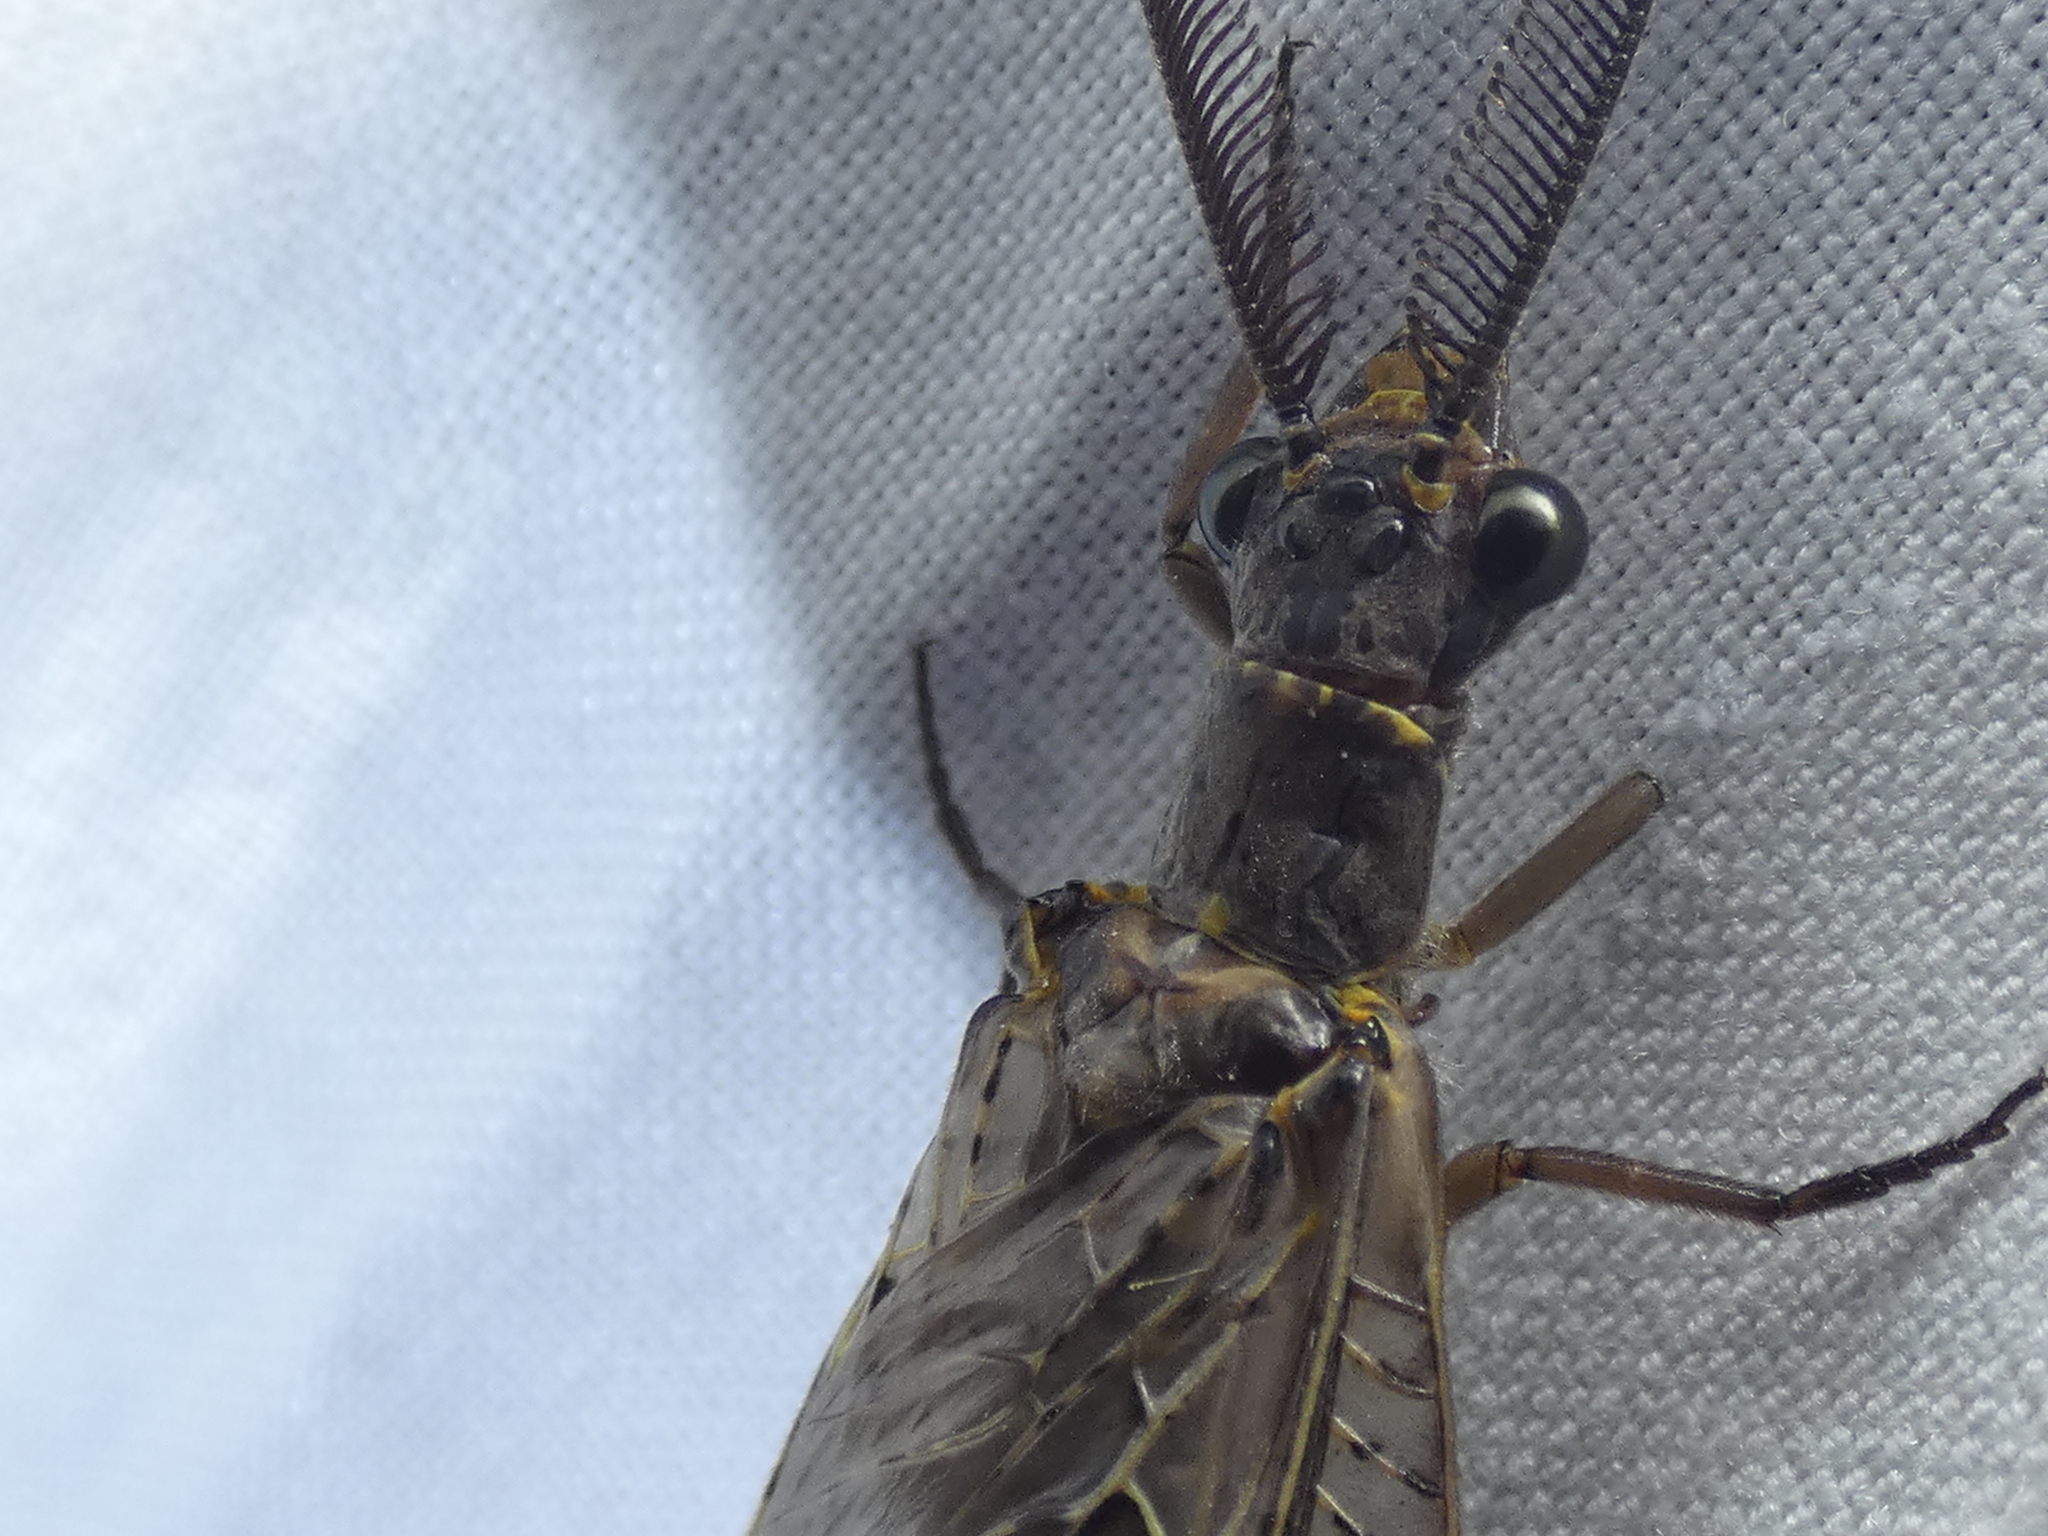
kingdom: Animalia
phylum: Arthropoda
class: Insecta
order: Megaloptera
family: Corydalidae
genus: Chauliodes
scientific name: Chauliodes rastricornis
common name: Spring fishfly
